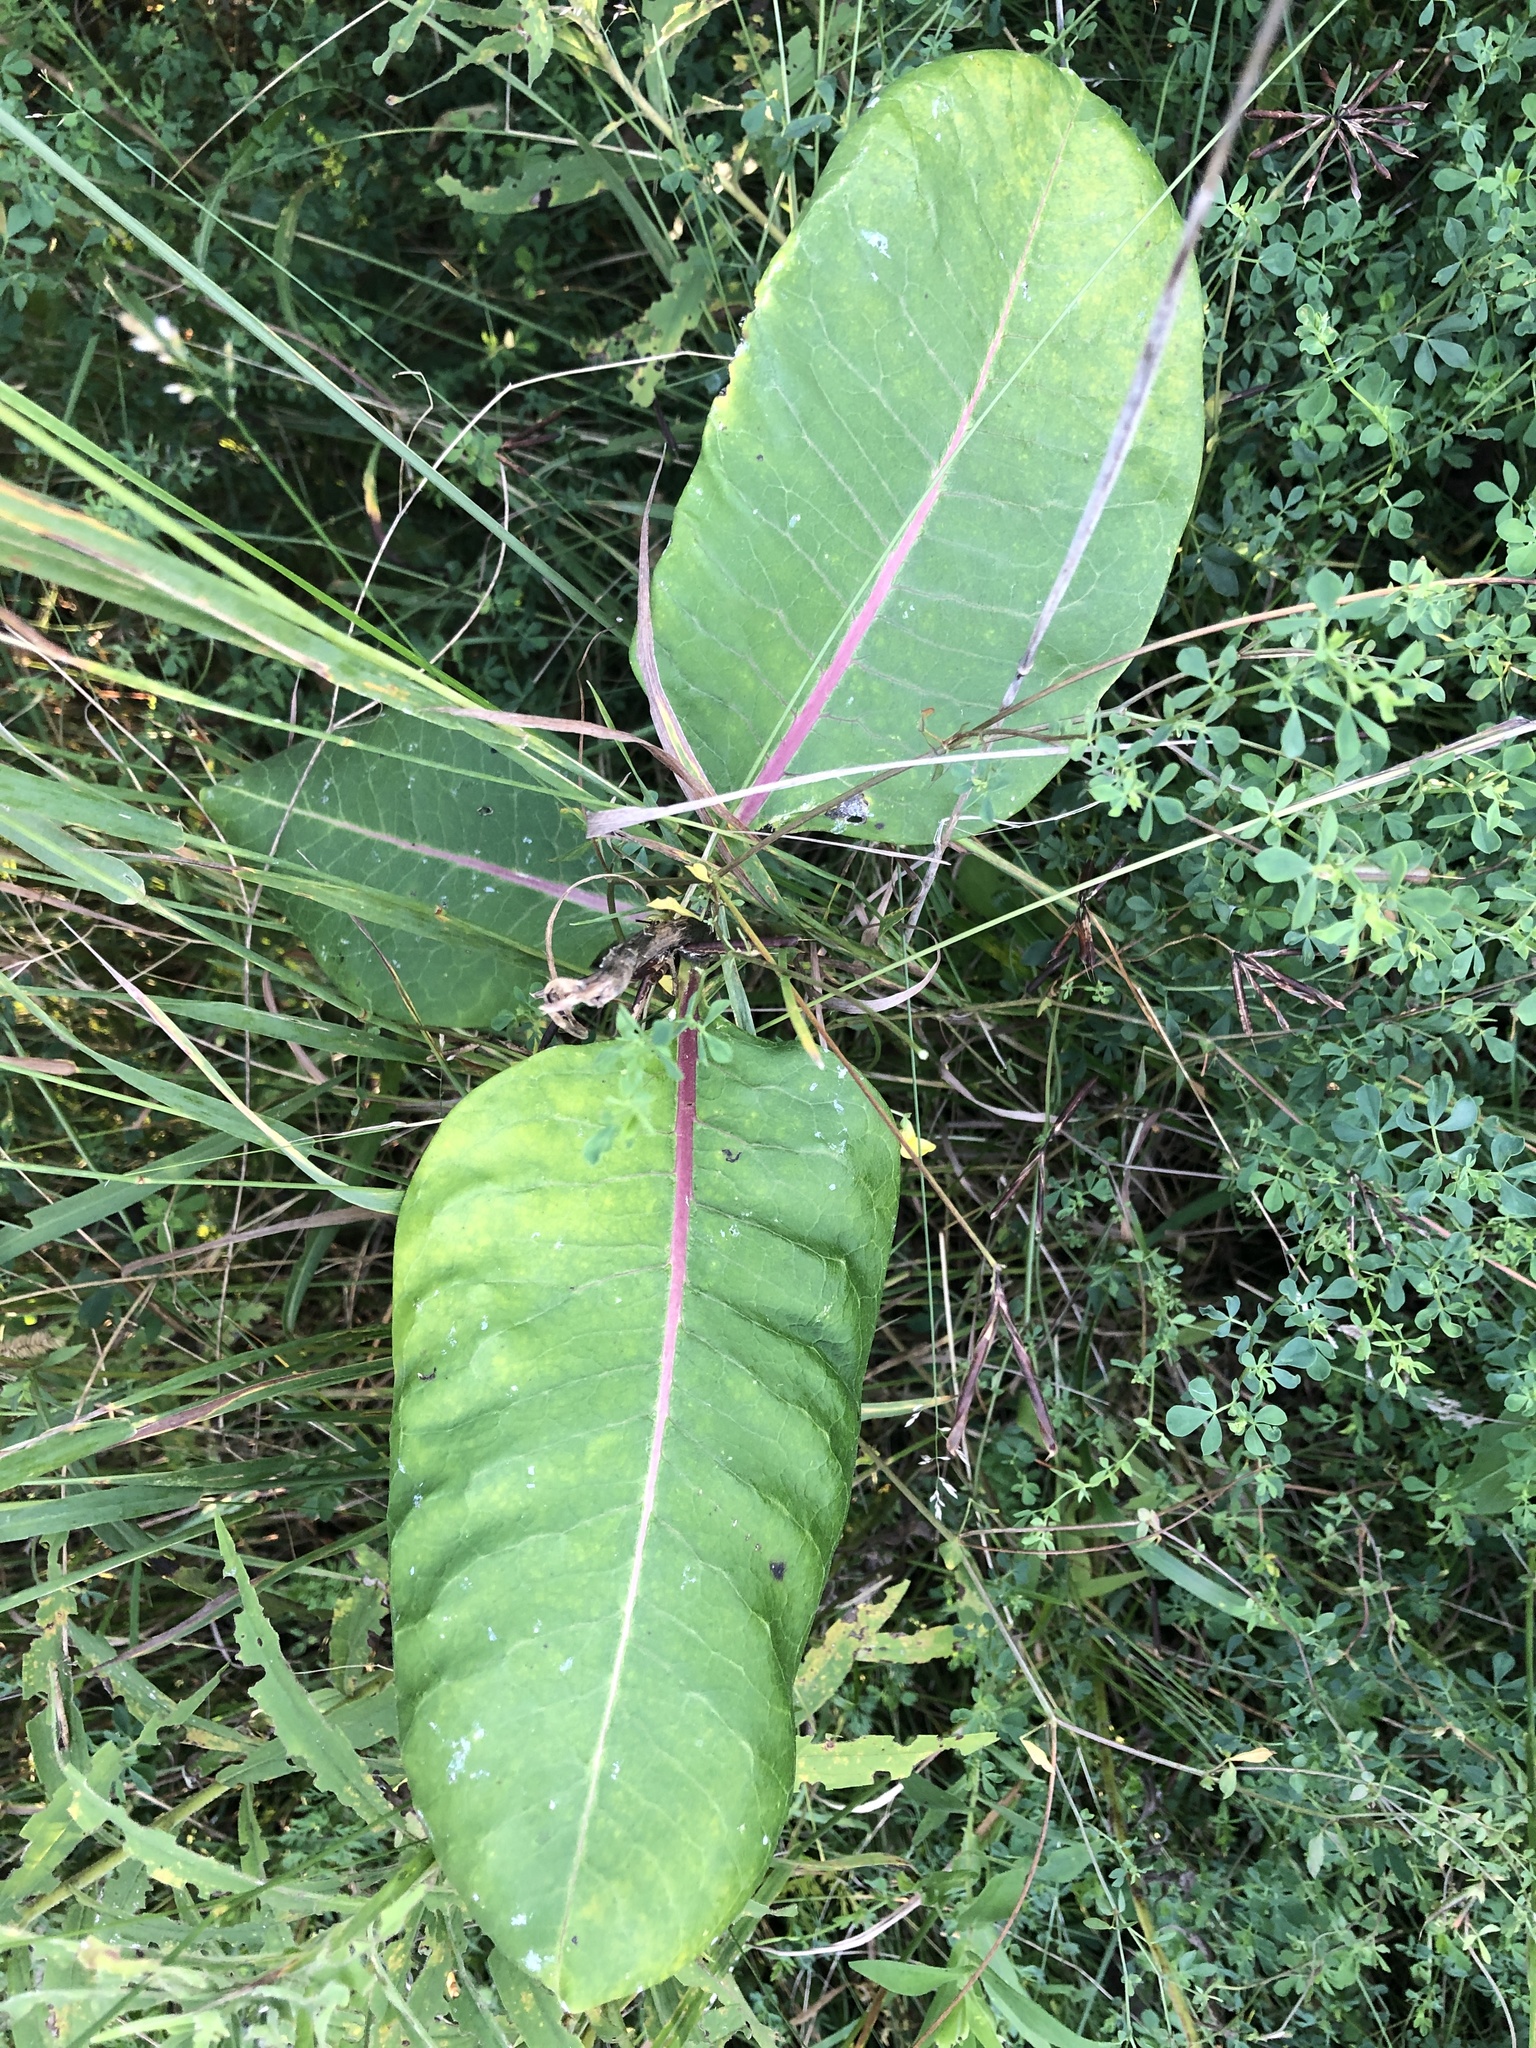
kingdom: Plantae
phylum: Tracheophyta
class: Magnoliopsida
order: Gentianales
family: Apocynaceae
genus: Asclepias
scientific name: Asclepias syriaca
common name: Common milkweed
